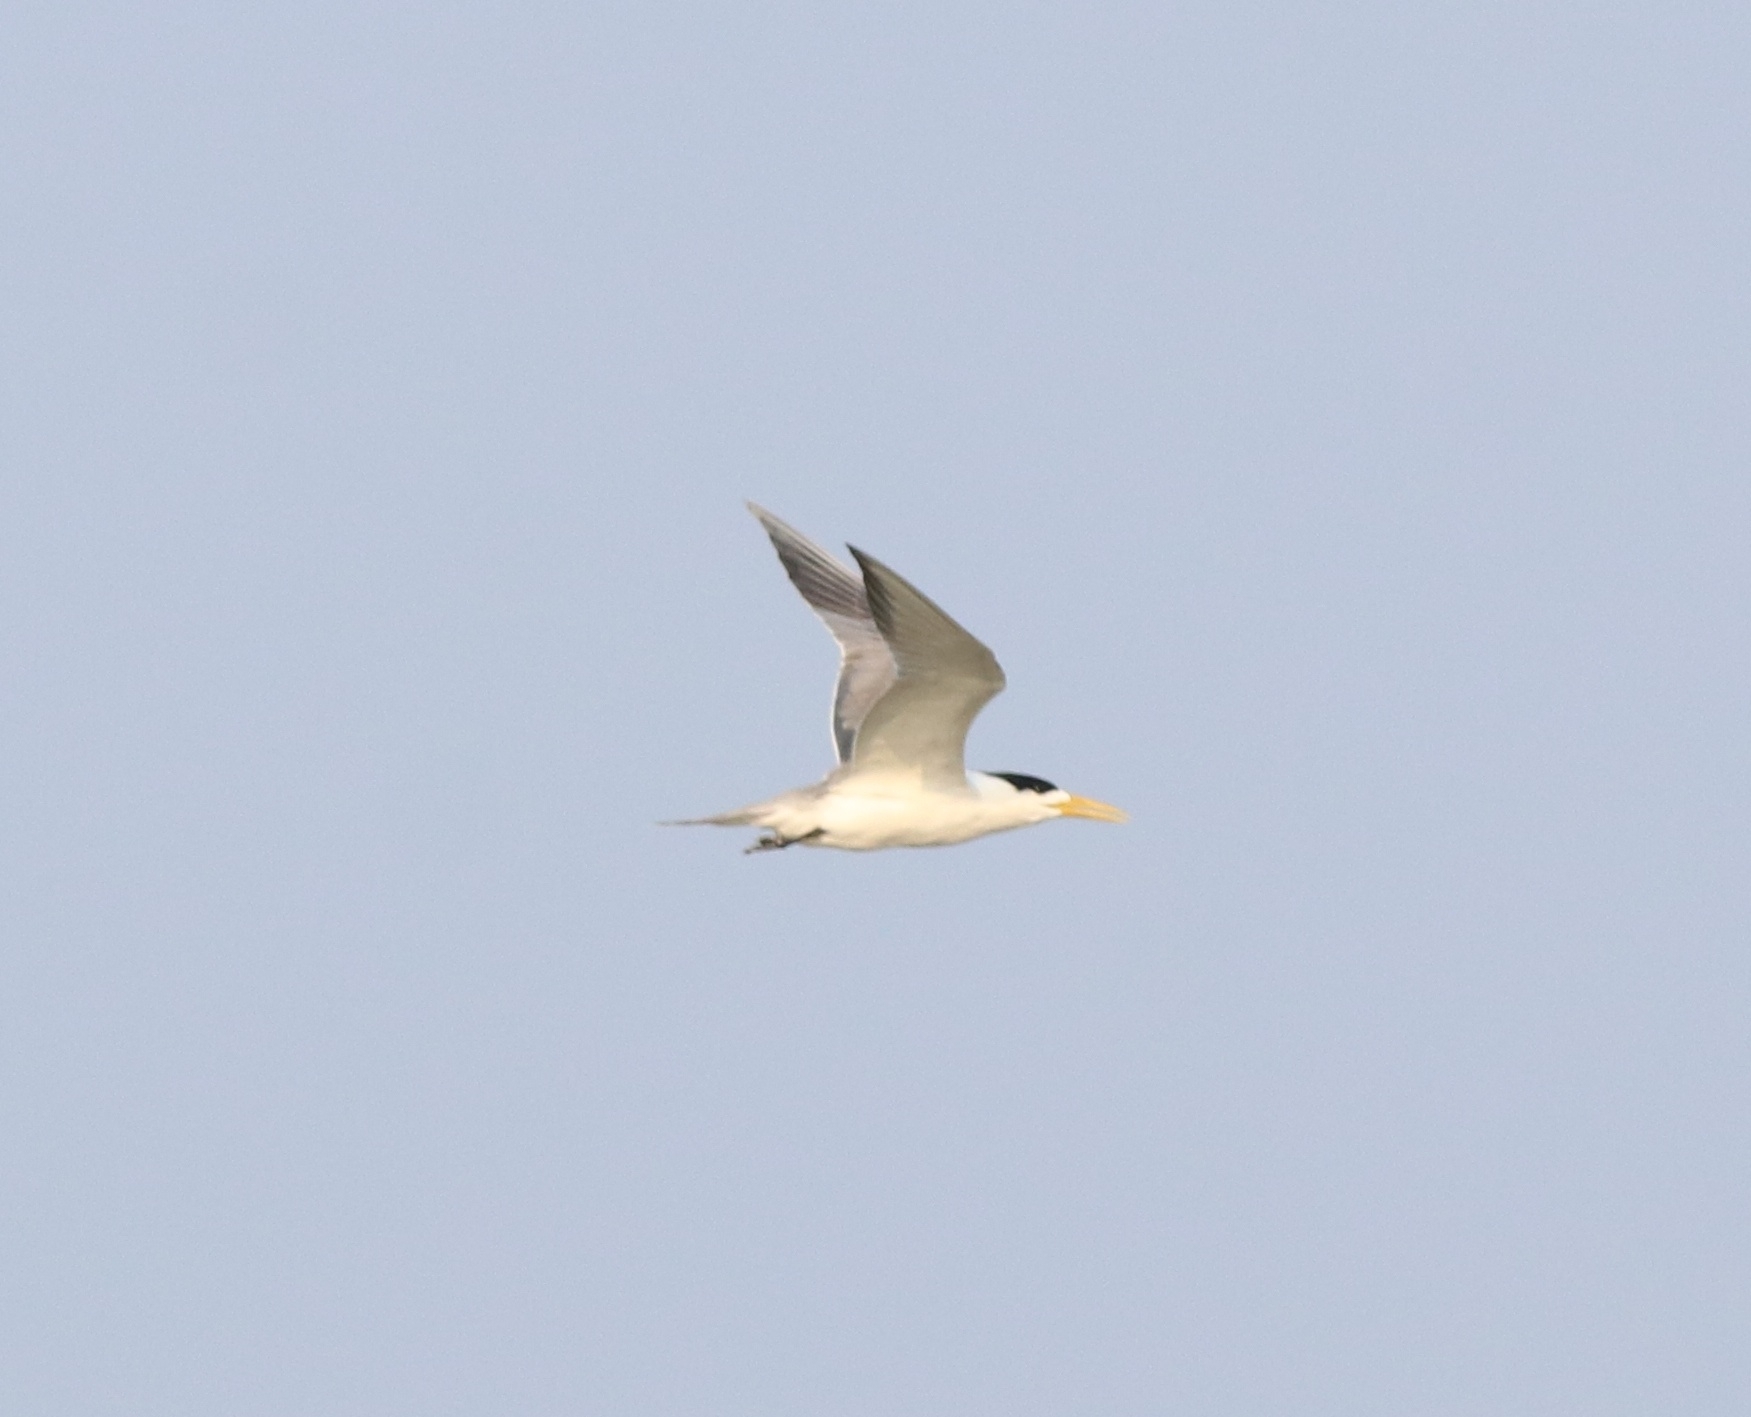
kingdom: Animalia
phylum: Chordata
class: Aves
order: Charadriiformes
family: Laridae
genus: Thalasseus
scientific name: Thalasseus bengalensis
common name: Lesser crested tern
